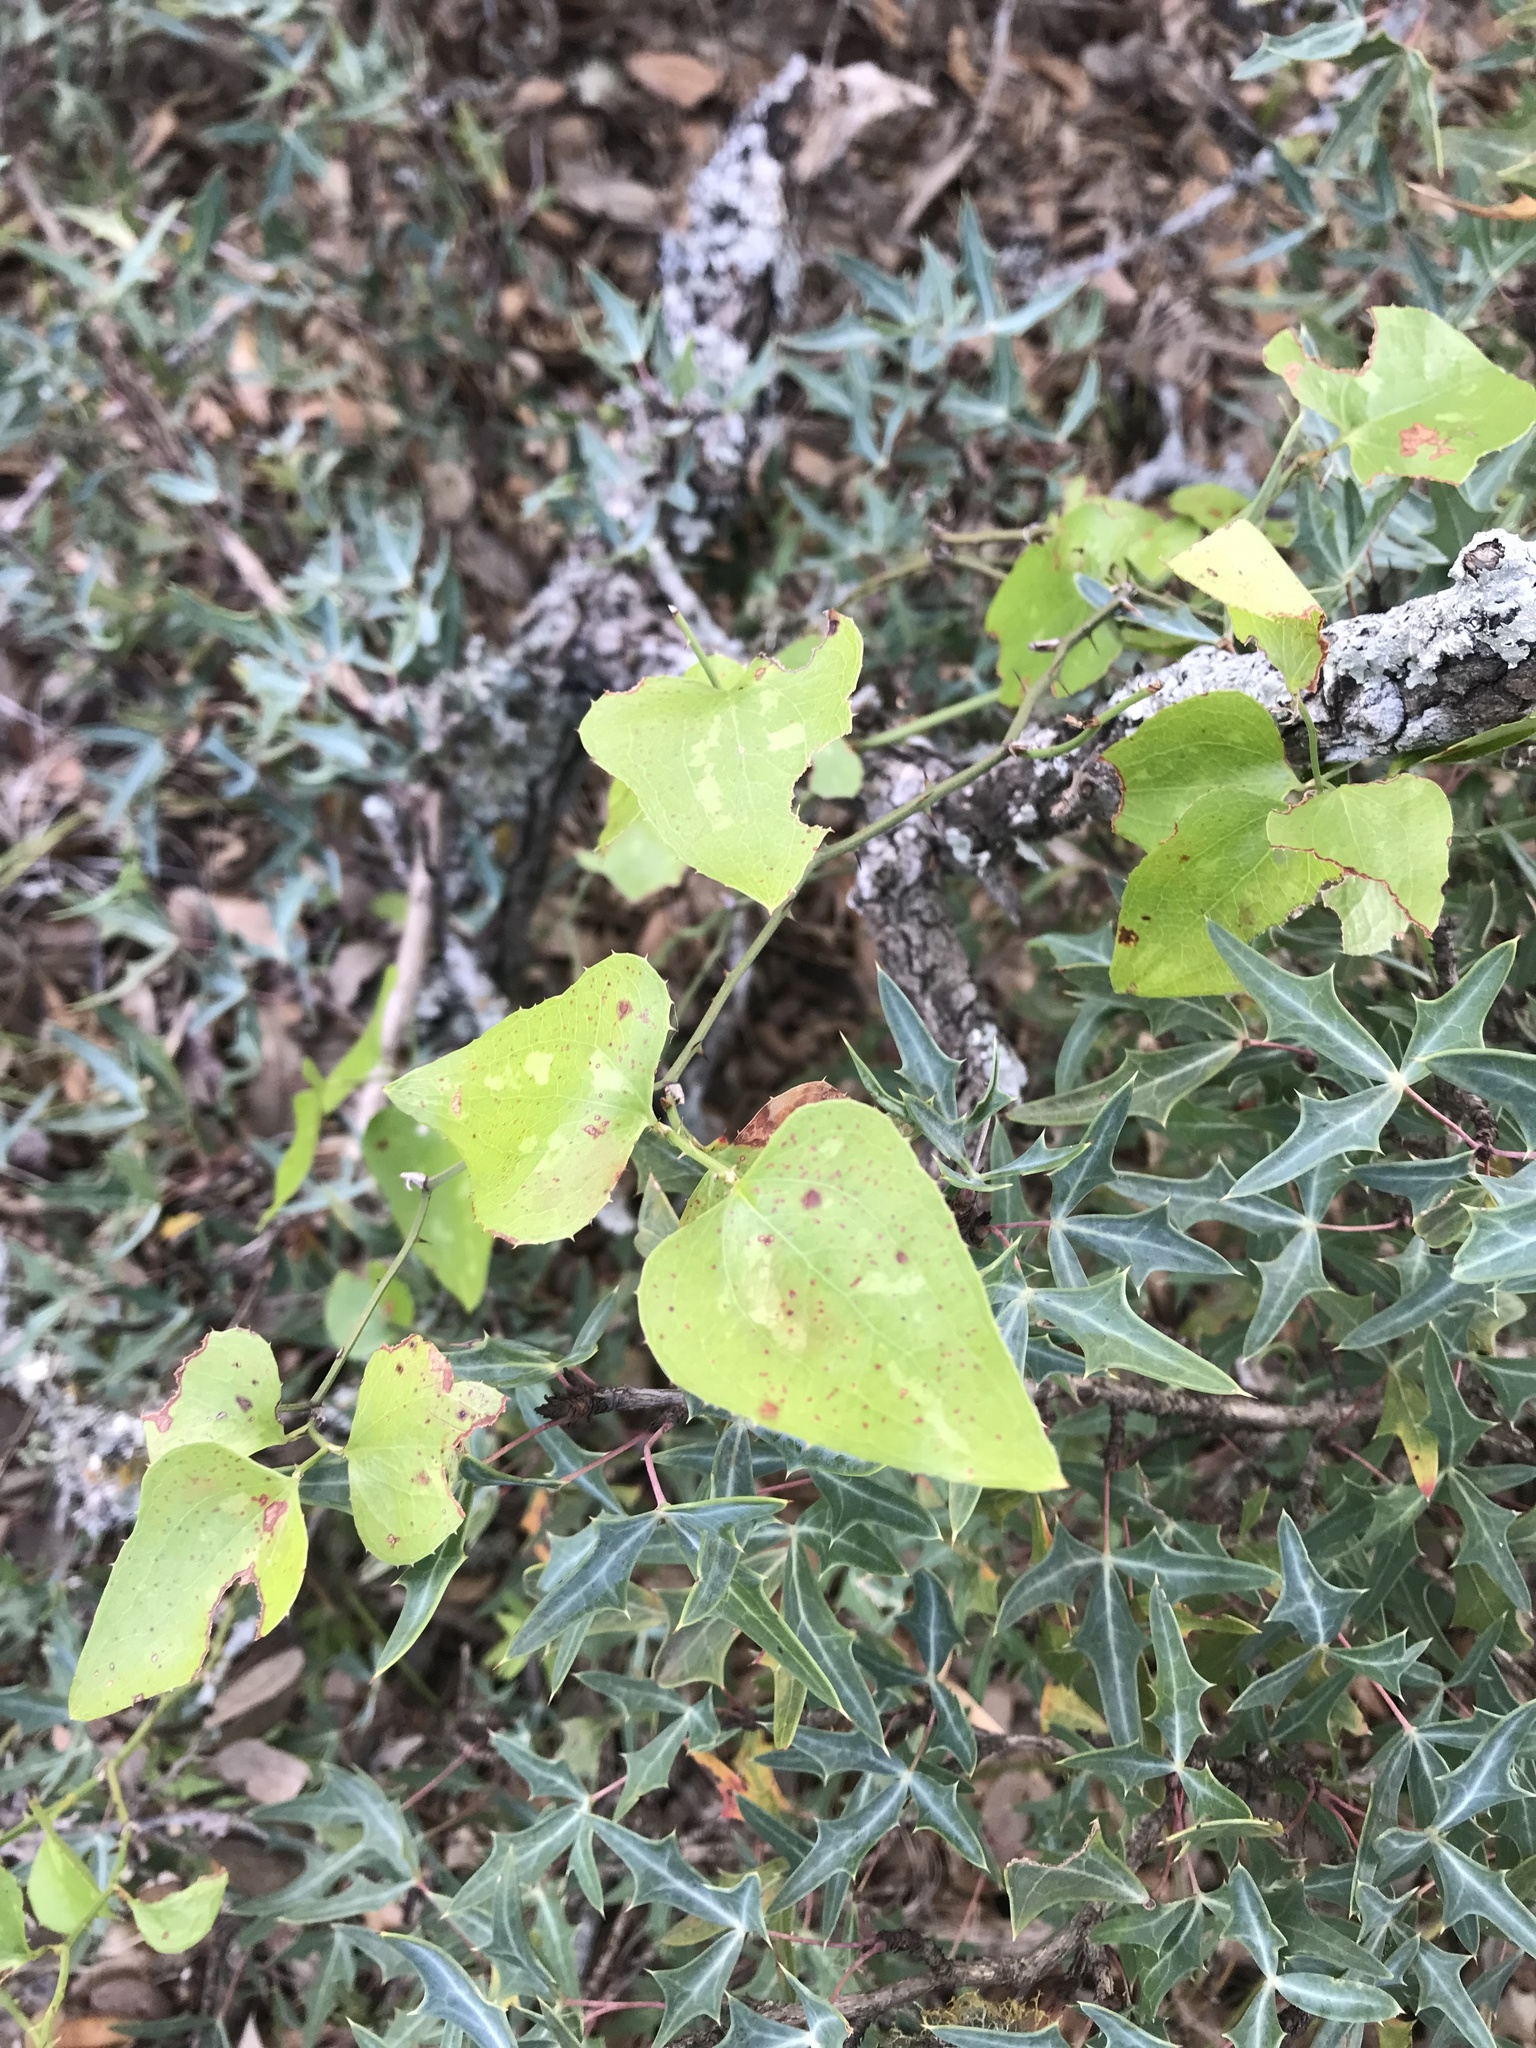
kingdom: Plantae
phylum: Tracheophyta
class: Liliopsida
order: Liliales
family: Smilacaceae
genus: Smilax
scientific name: Smilax bona-nox
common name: Catbrier
